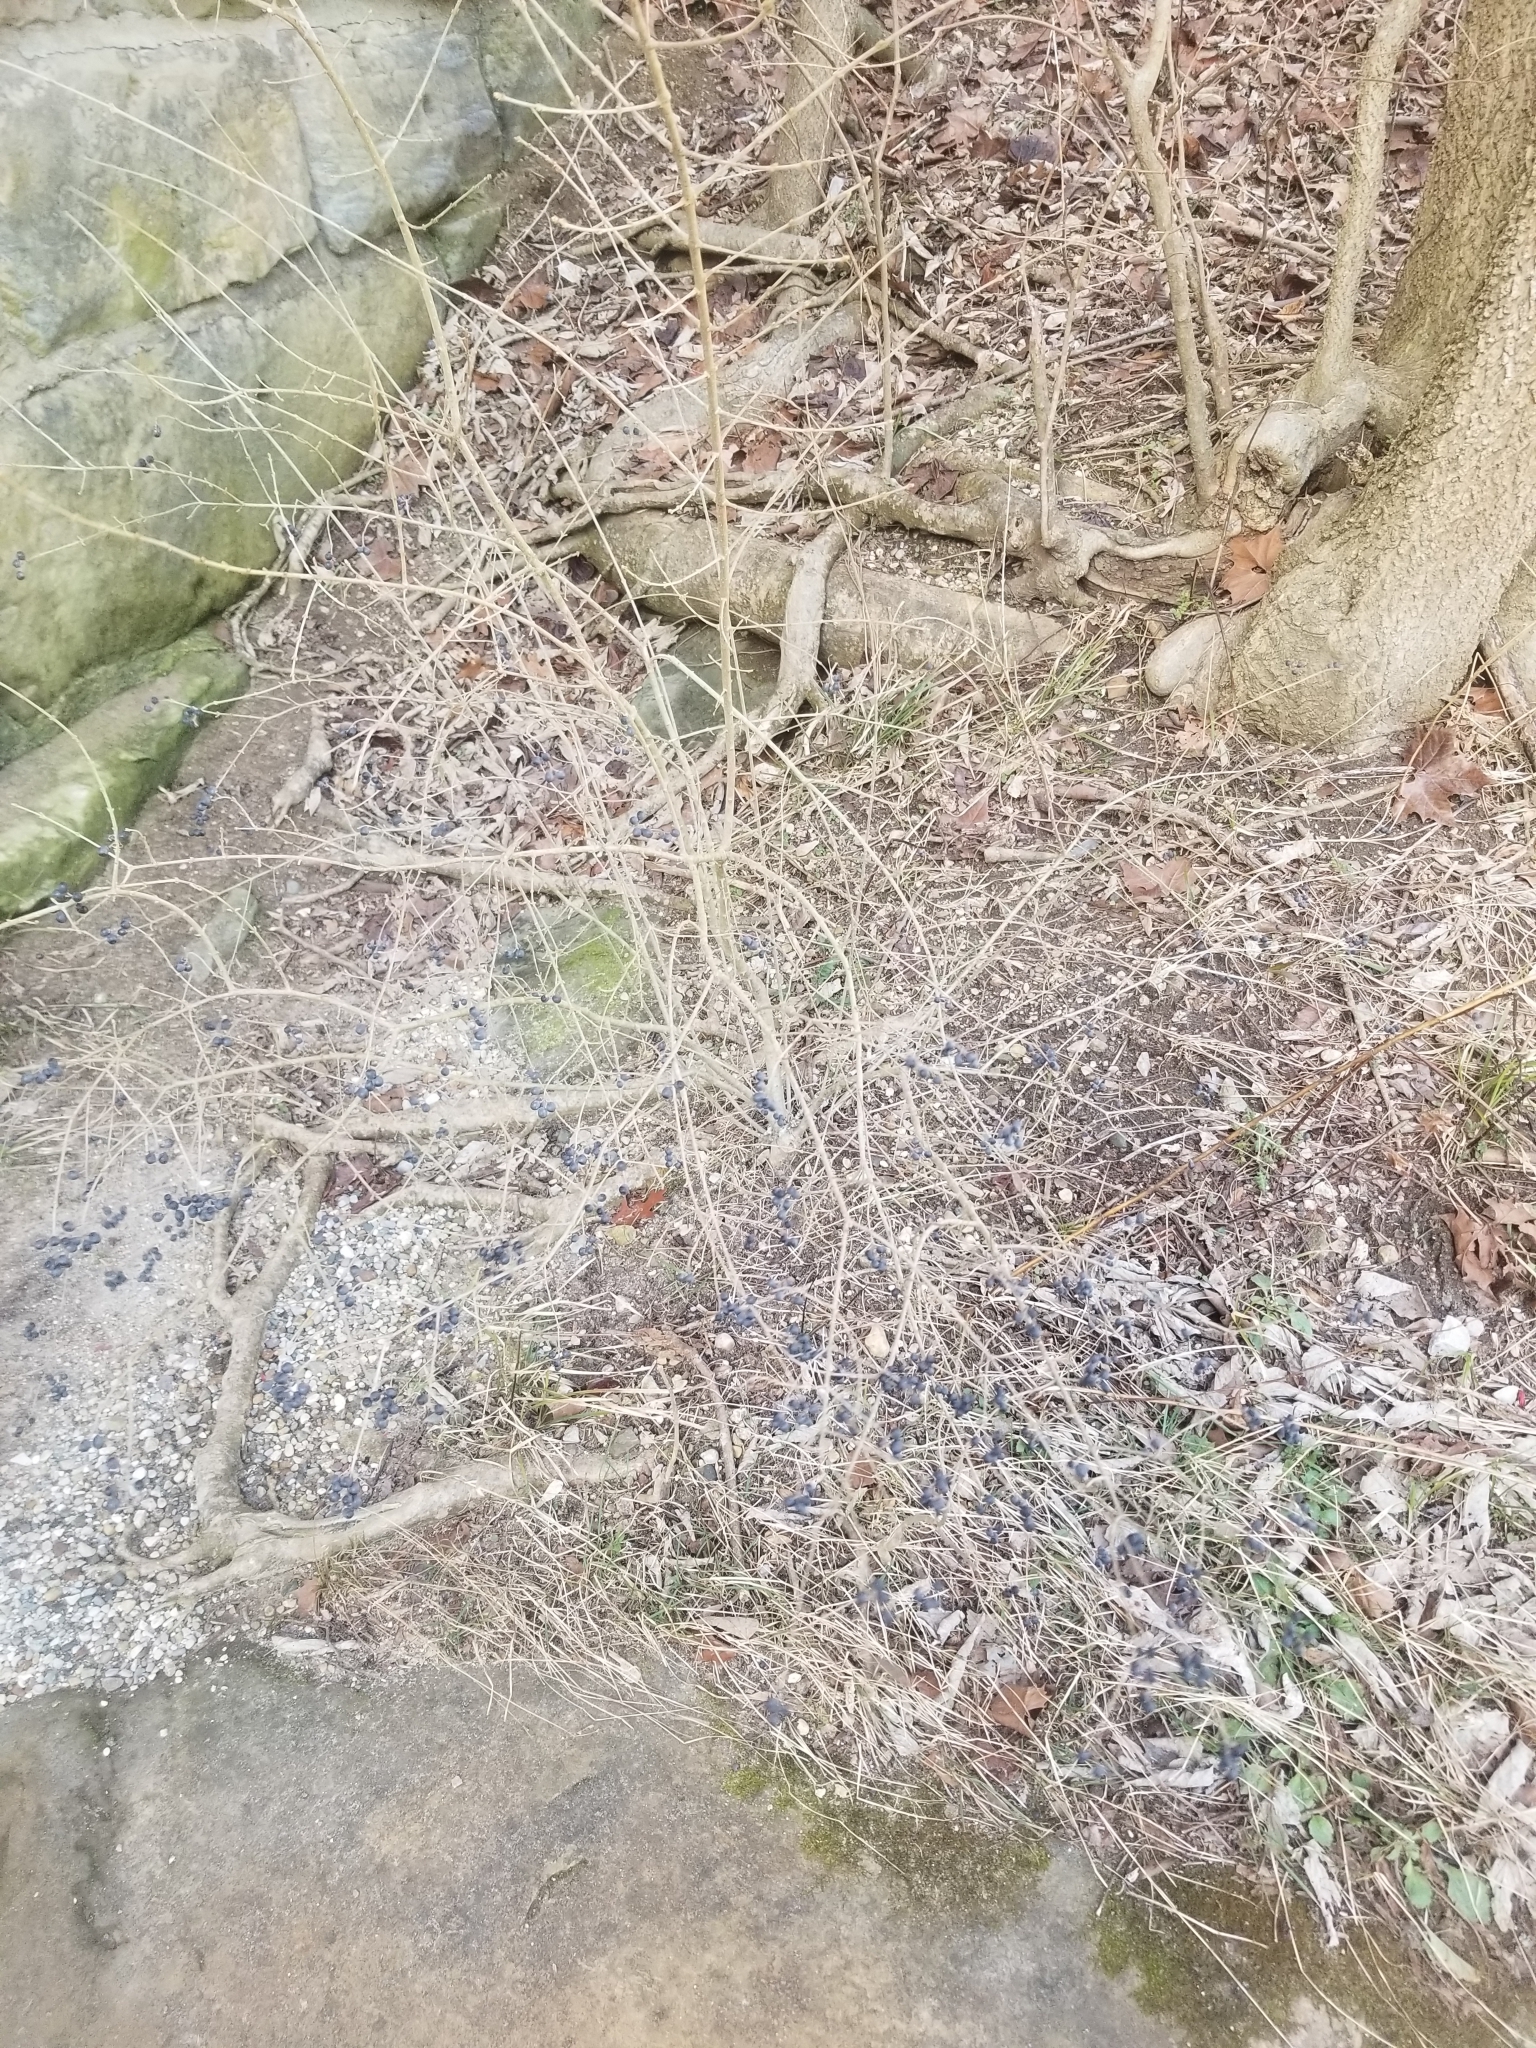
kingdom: Plantae
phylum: Tracheophyta
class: Magnoliopsida
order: Lamiales
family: Oleaceae
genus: Ligustrum
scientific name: Ligustrum
